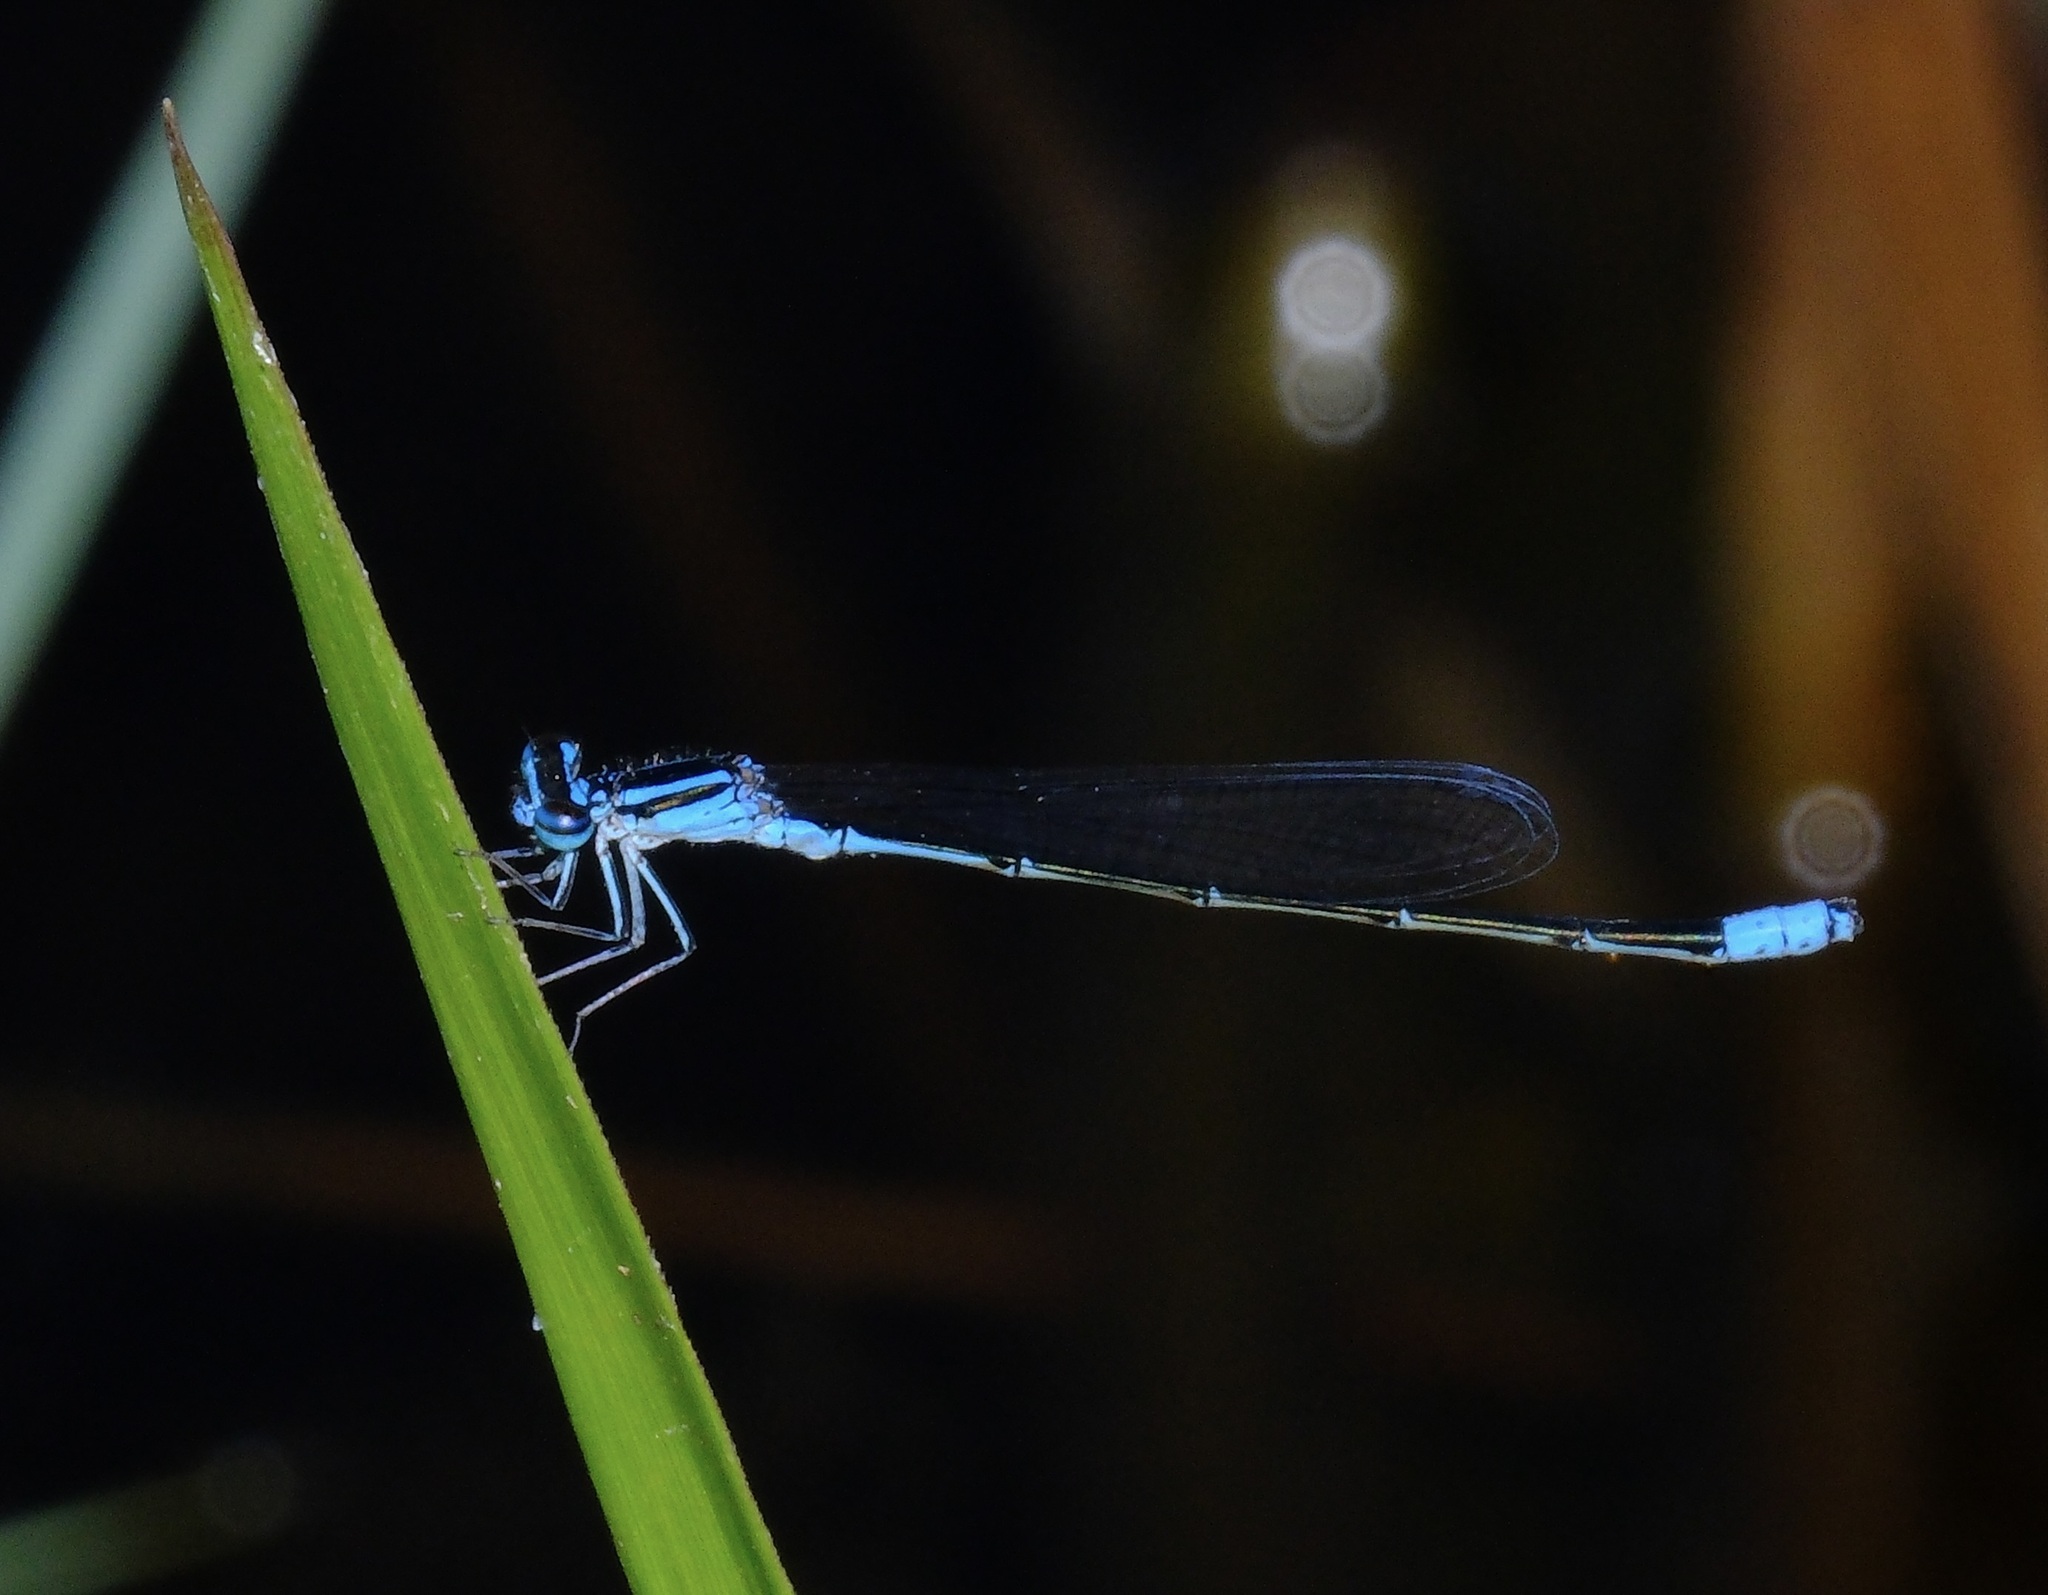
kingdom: Animalia
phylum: Arthropoda
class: Insecta
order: Odonata
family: Coenagrionidae
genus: Enallagma
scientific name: Enallagma divagans
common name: Turquoise bluet
